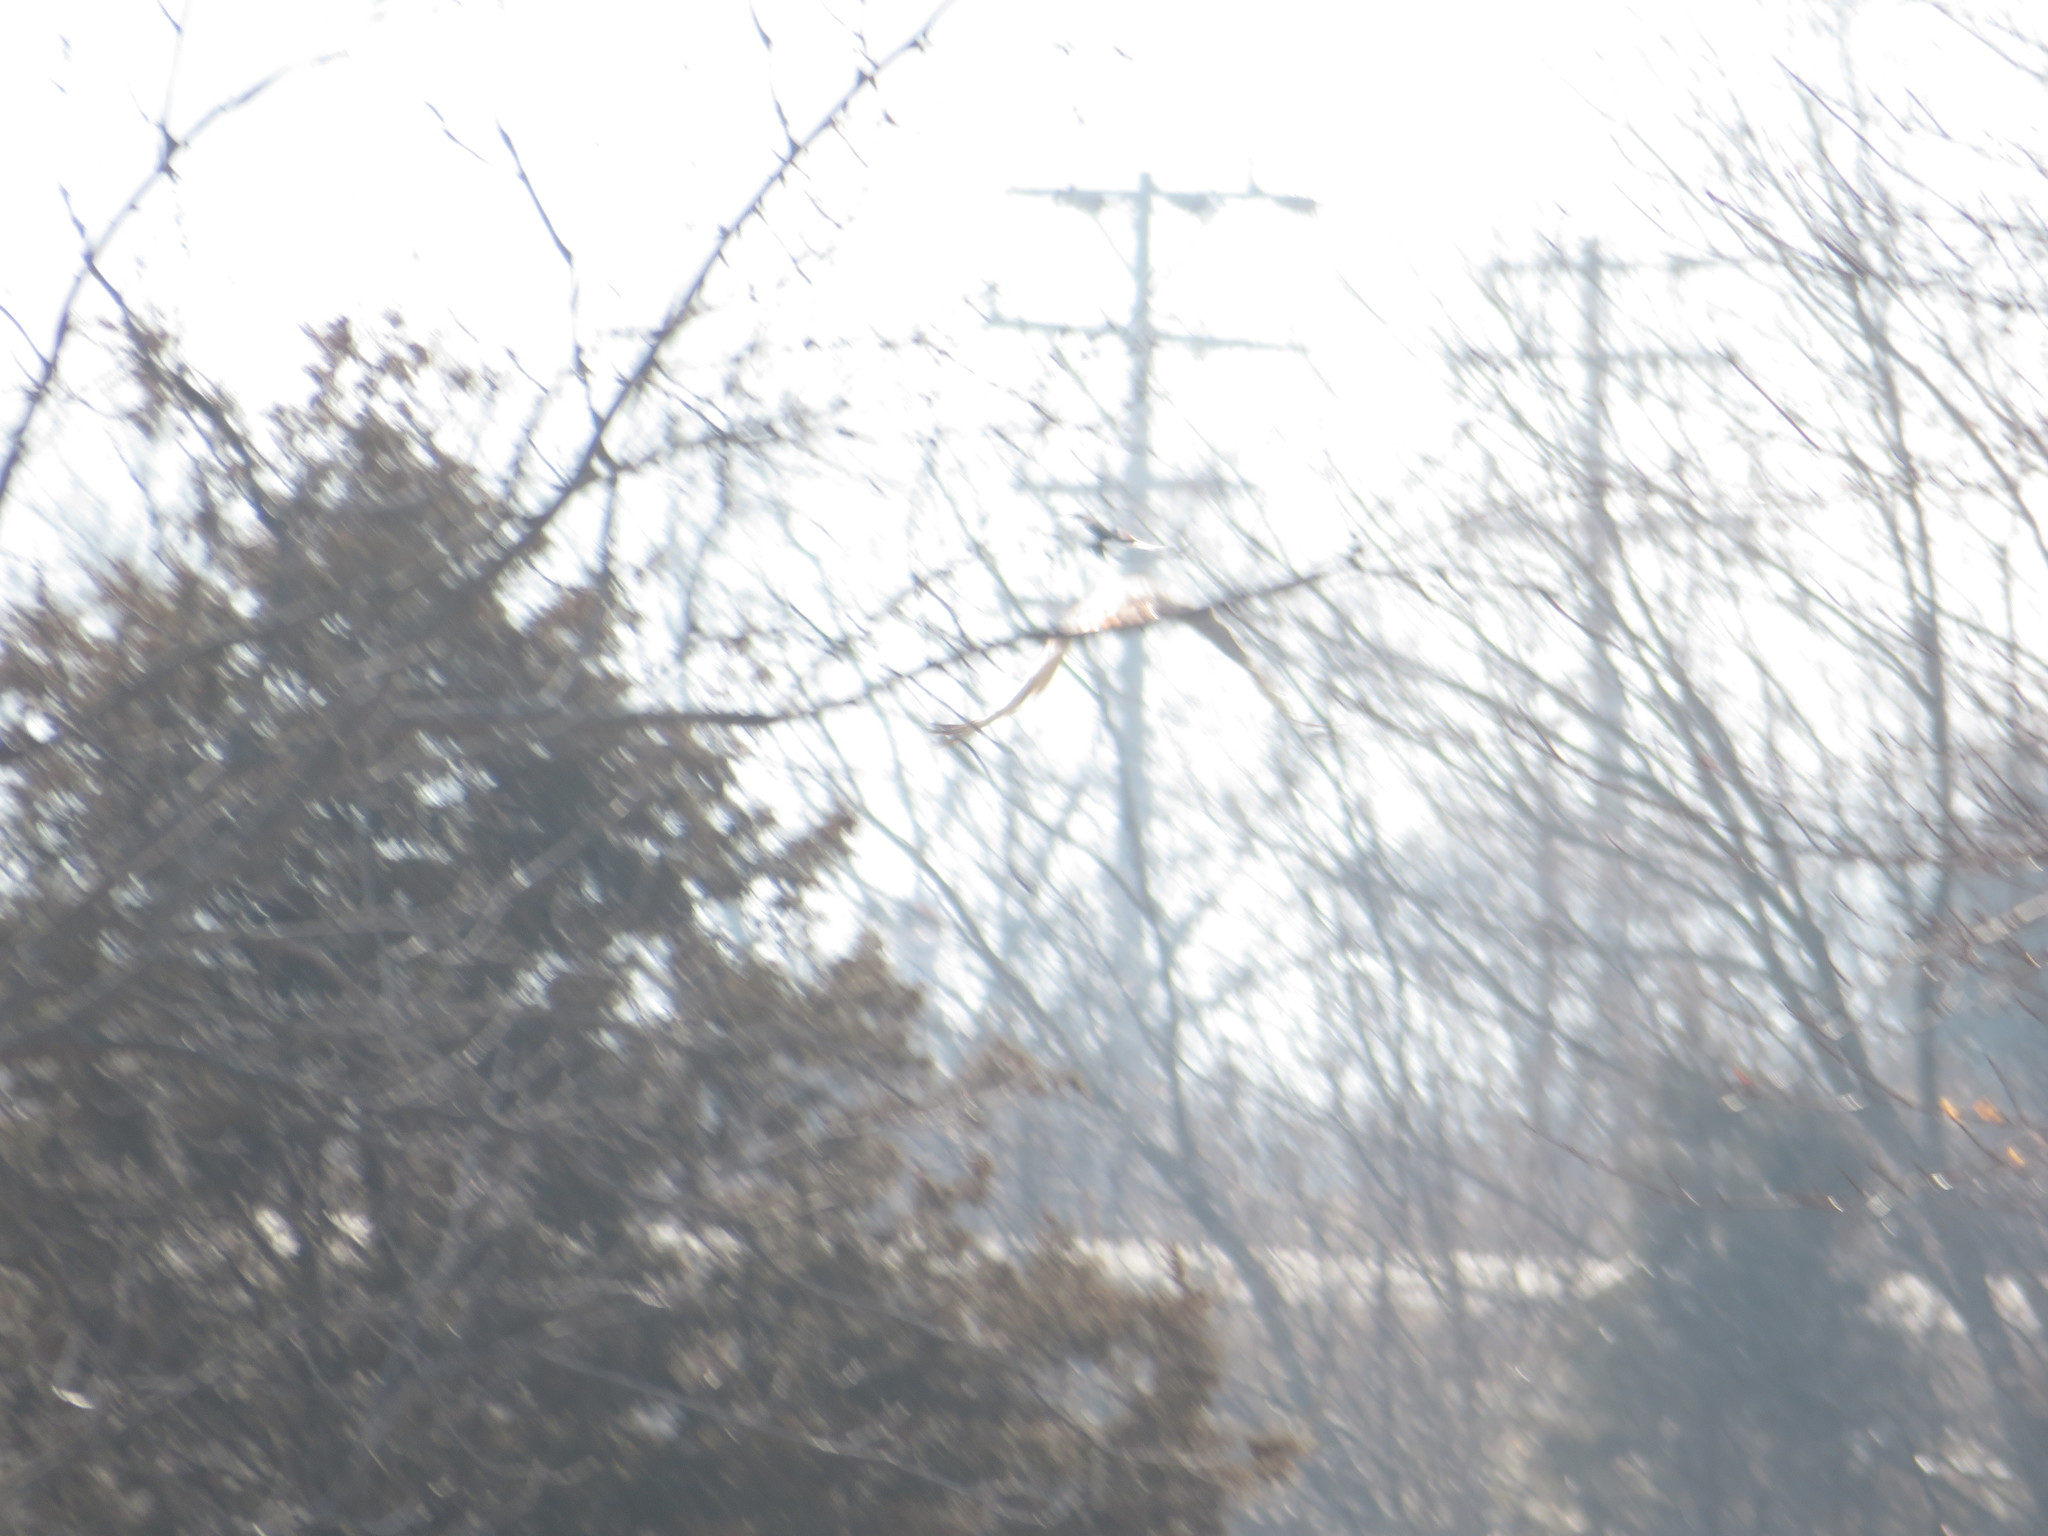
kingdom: Animalia
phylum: Chordata
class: Aves
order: Accipitriformes
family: Accipitridae
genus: Buteo
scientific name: Buteo jamaicensis
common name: Red-tailed hawk
